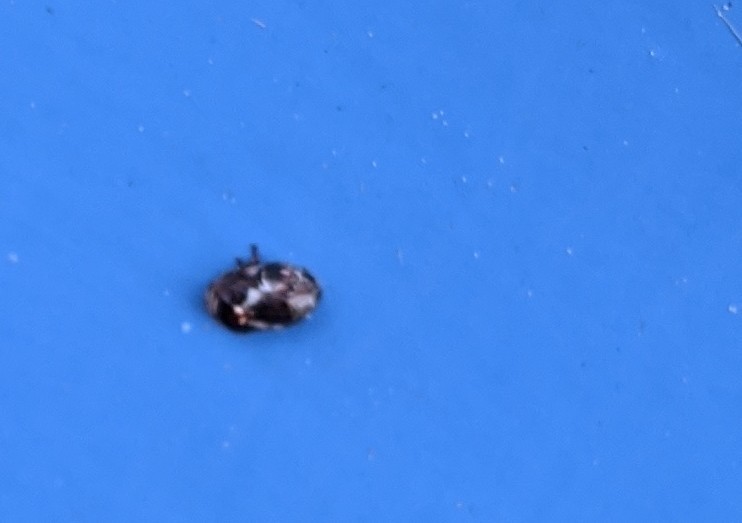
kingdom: Animalia
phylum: Arthropoda
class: Insecta
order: Hemiptera
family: Clastopteridae
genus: Clastoptera
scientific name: Clastoptera obtusa
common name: Alder spittlebug
